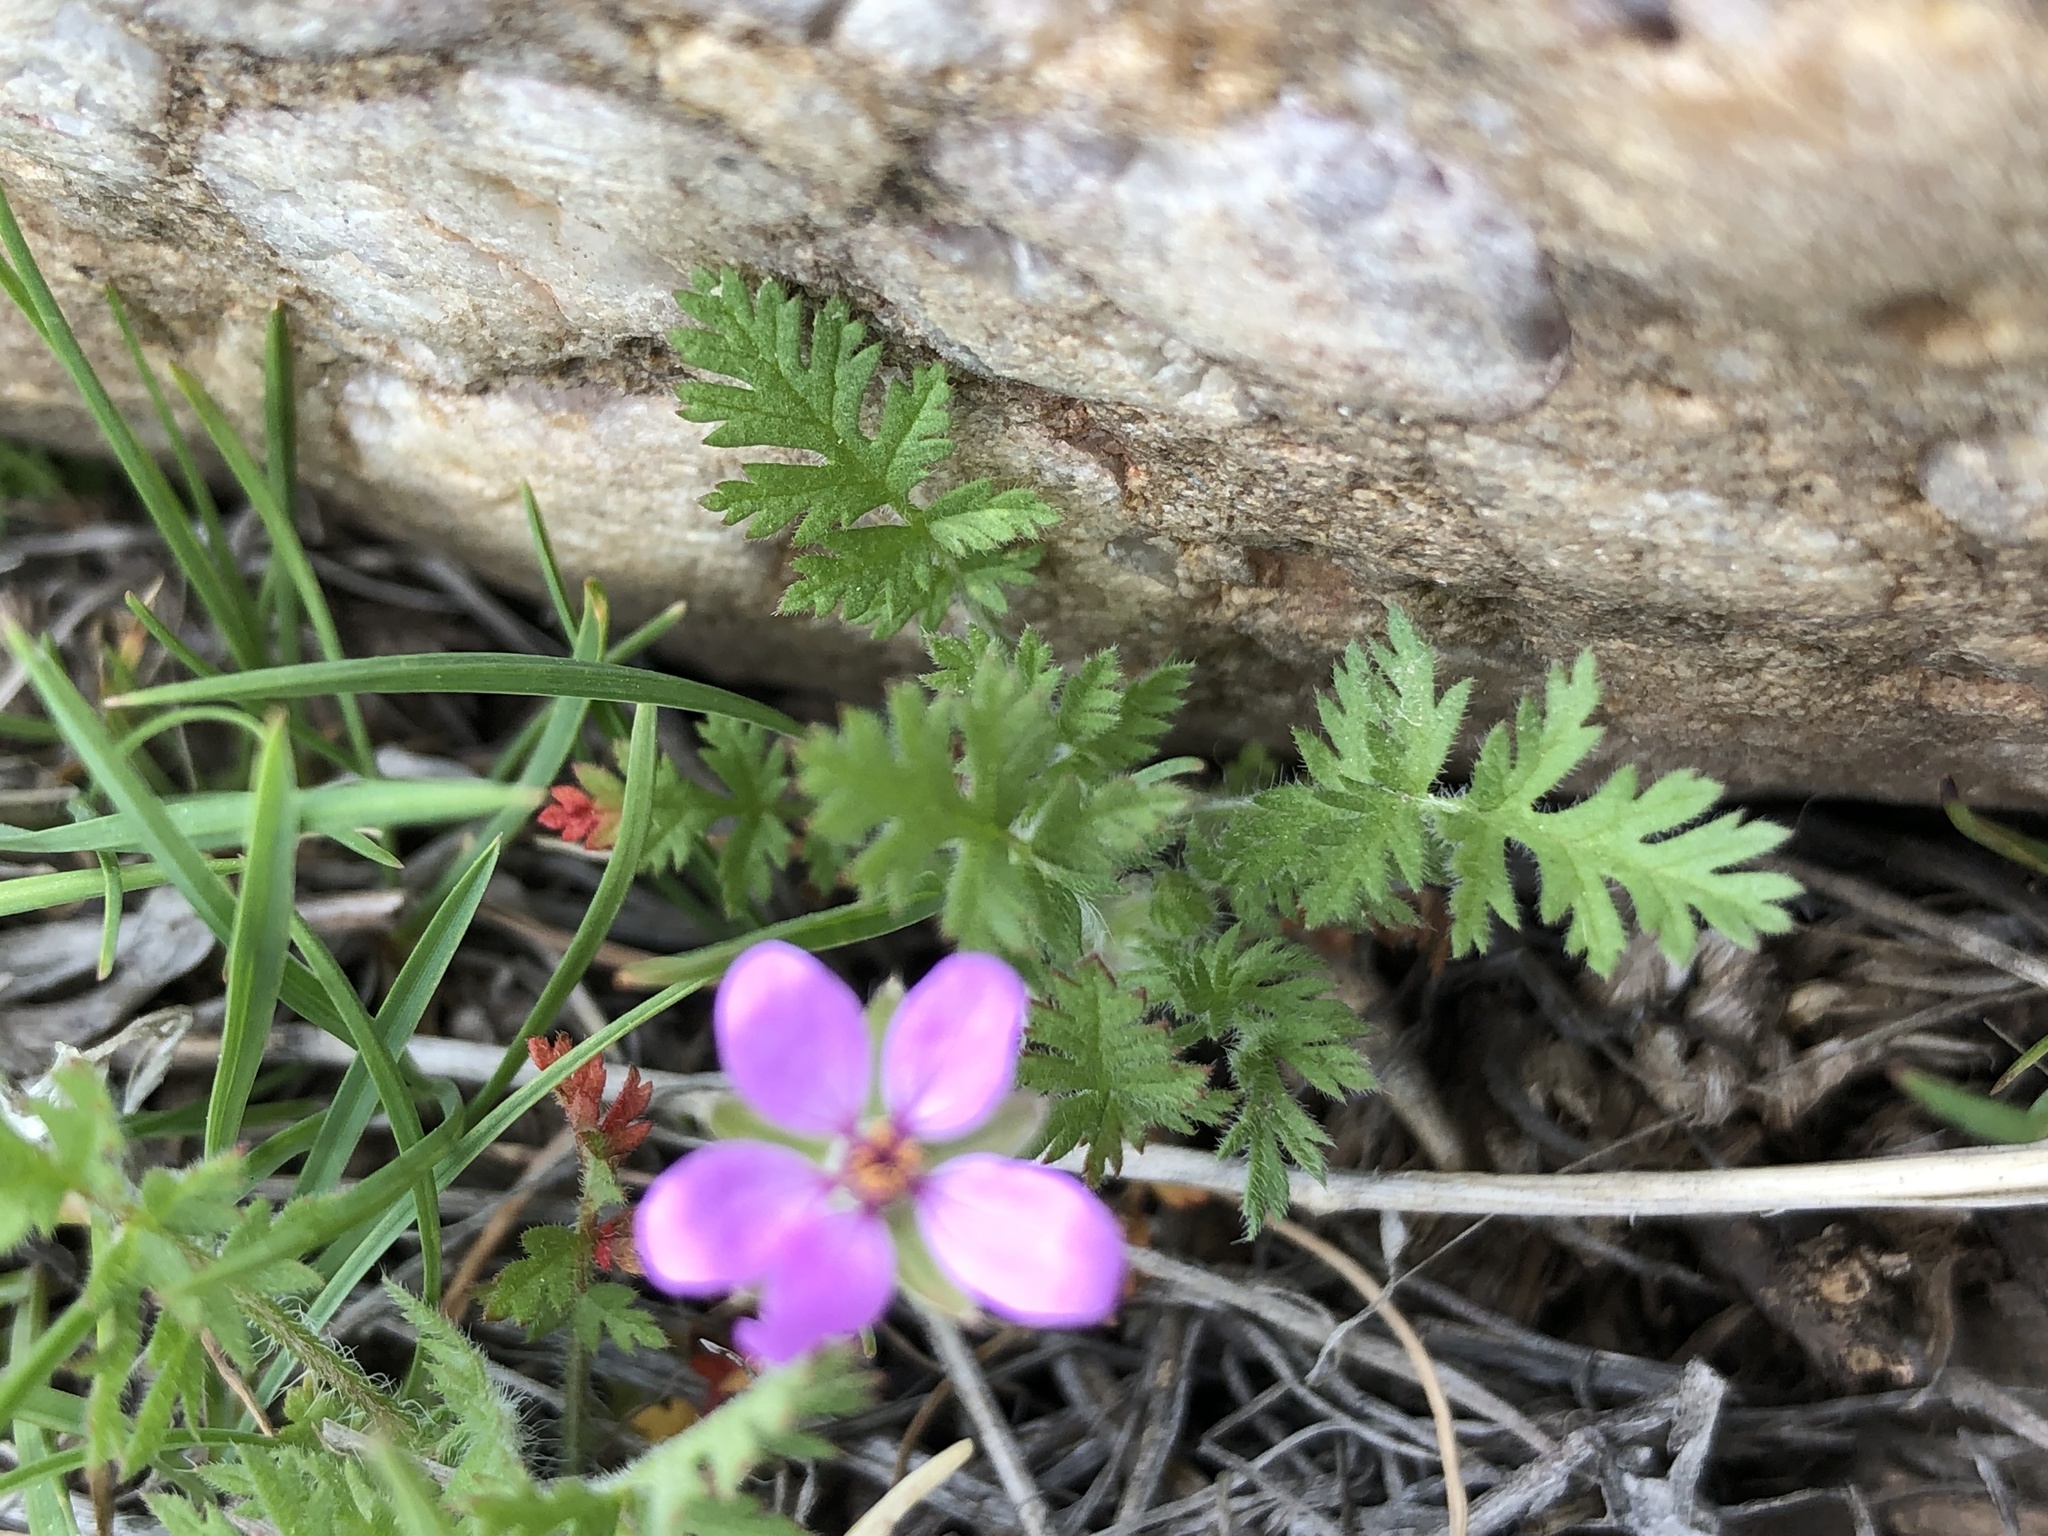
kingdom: Plantae
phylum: Tracheophyta
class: Magnoliopsida
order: Geraniales
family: Geraniaceae
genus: Erodium
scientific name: Erodium cicutarium
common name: Common stork's-bill
